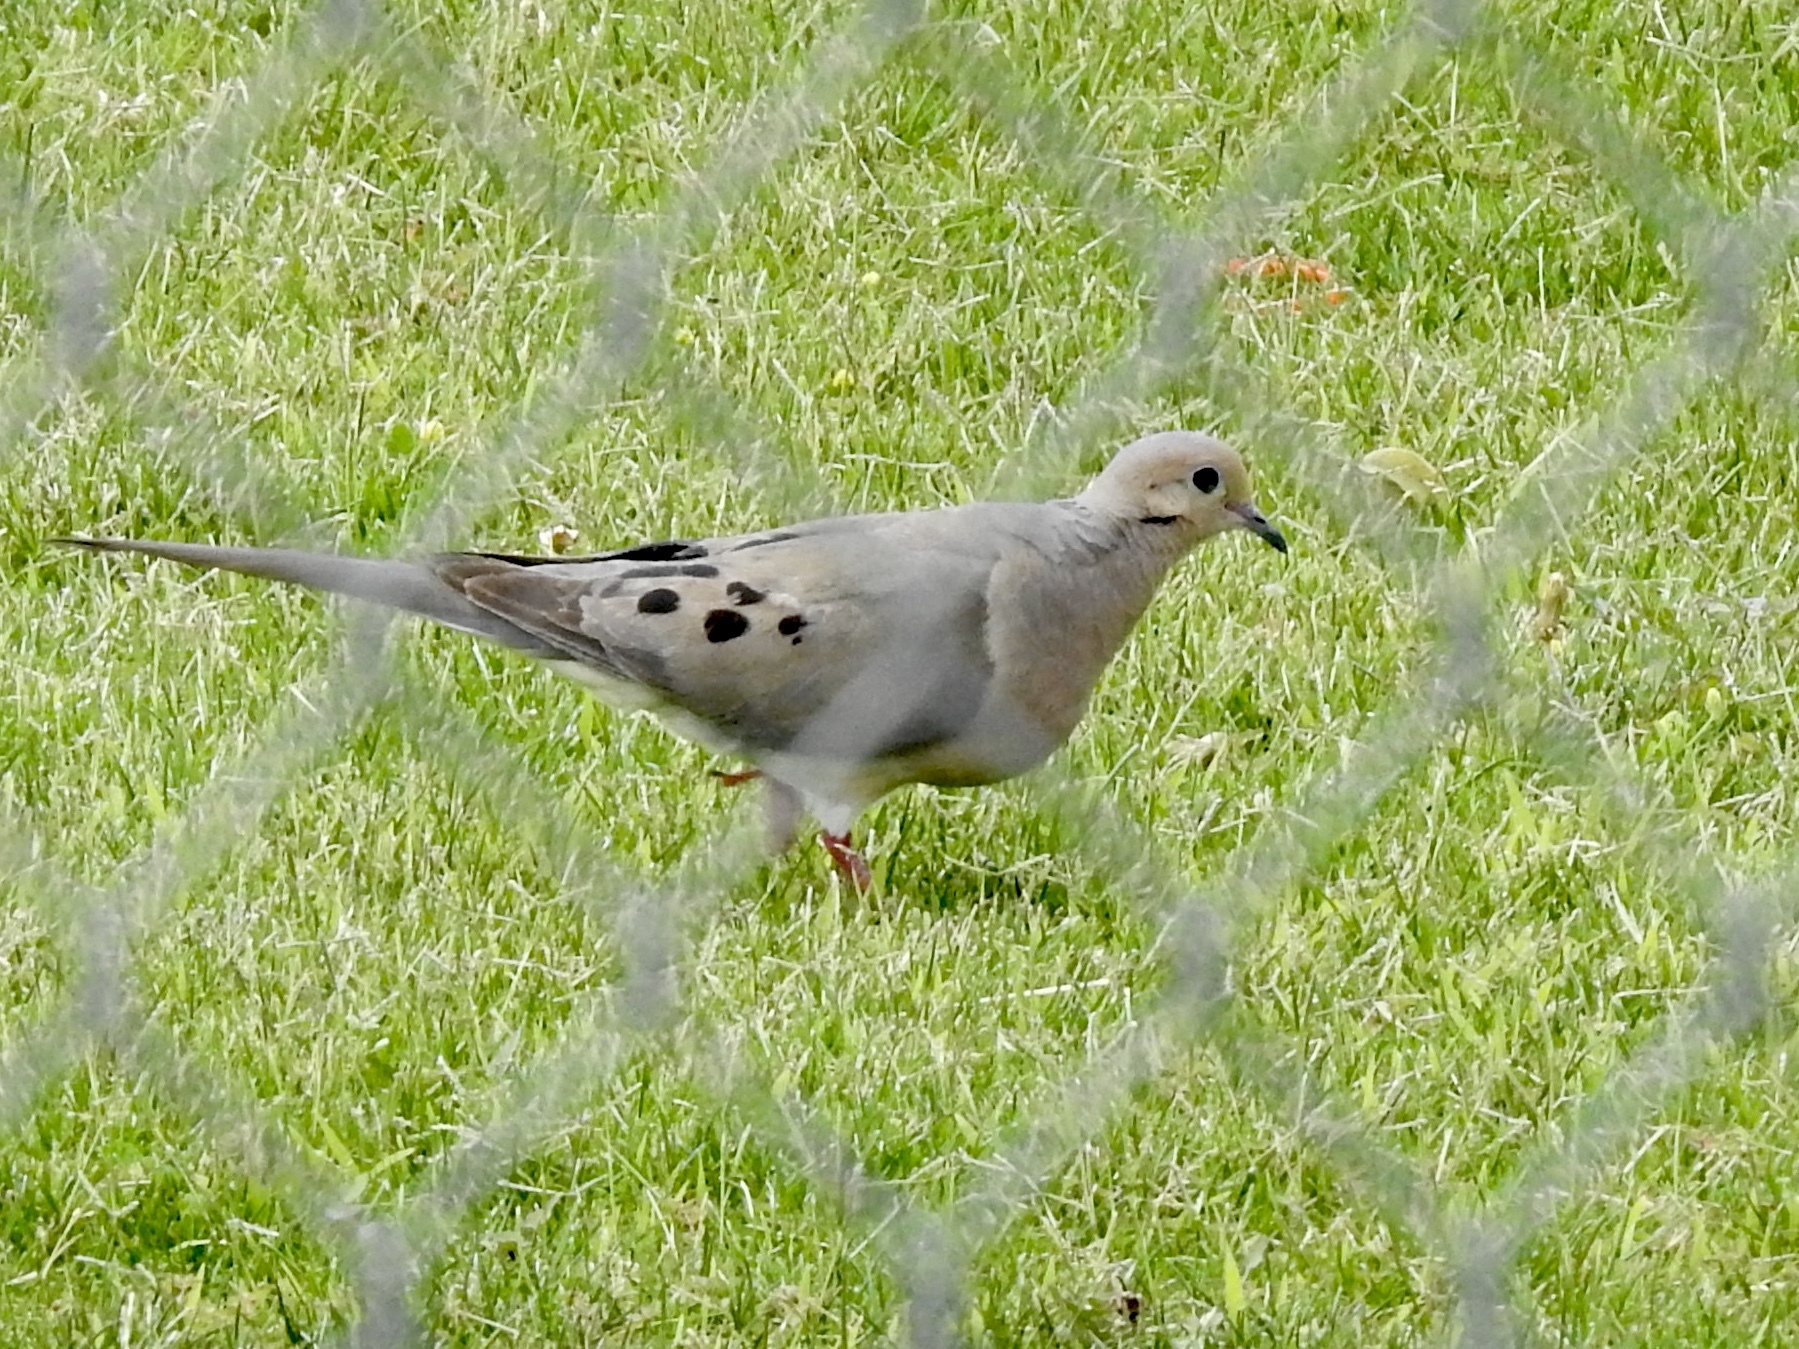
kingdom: Animalia
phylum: Chordata
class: Aves
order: Columbiformes
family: Columbidae
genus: Zenaida
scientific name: Zenaida macroura
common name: Mourning dove
